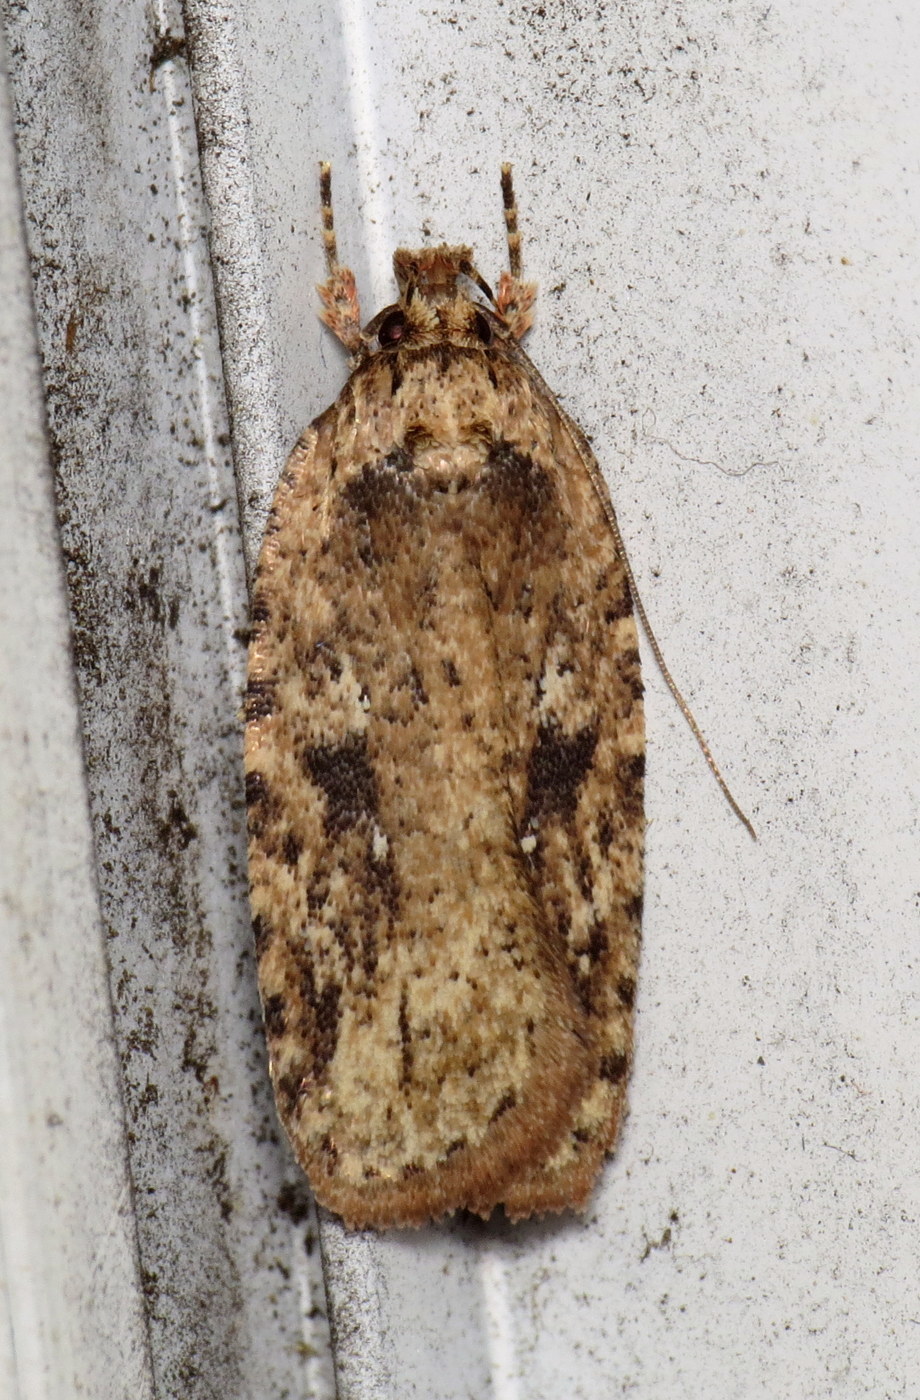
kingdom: Animalia
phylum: Arthropoda
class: Insecta
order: Lepidoptera
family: Depressariidae
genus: Agonopterix
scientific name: Agonopterix pulvipennella
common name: Goldenrod leafffolder
